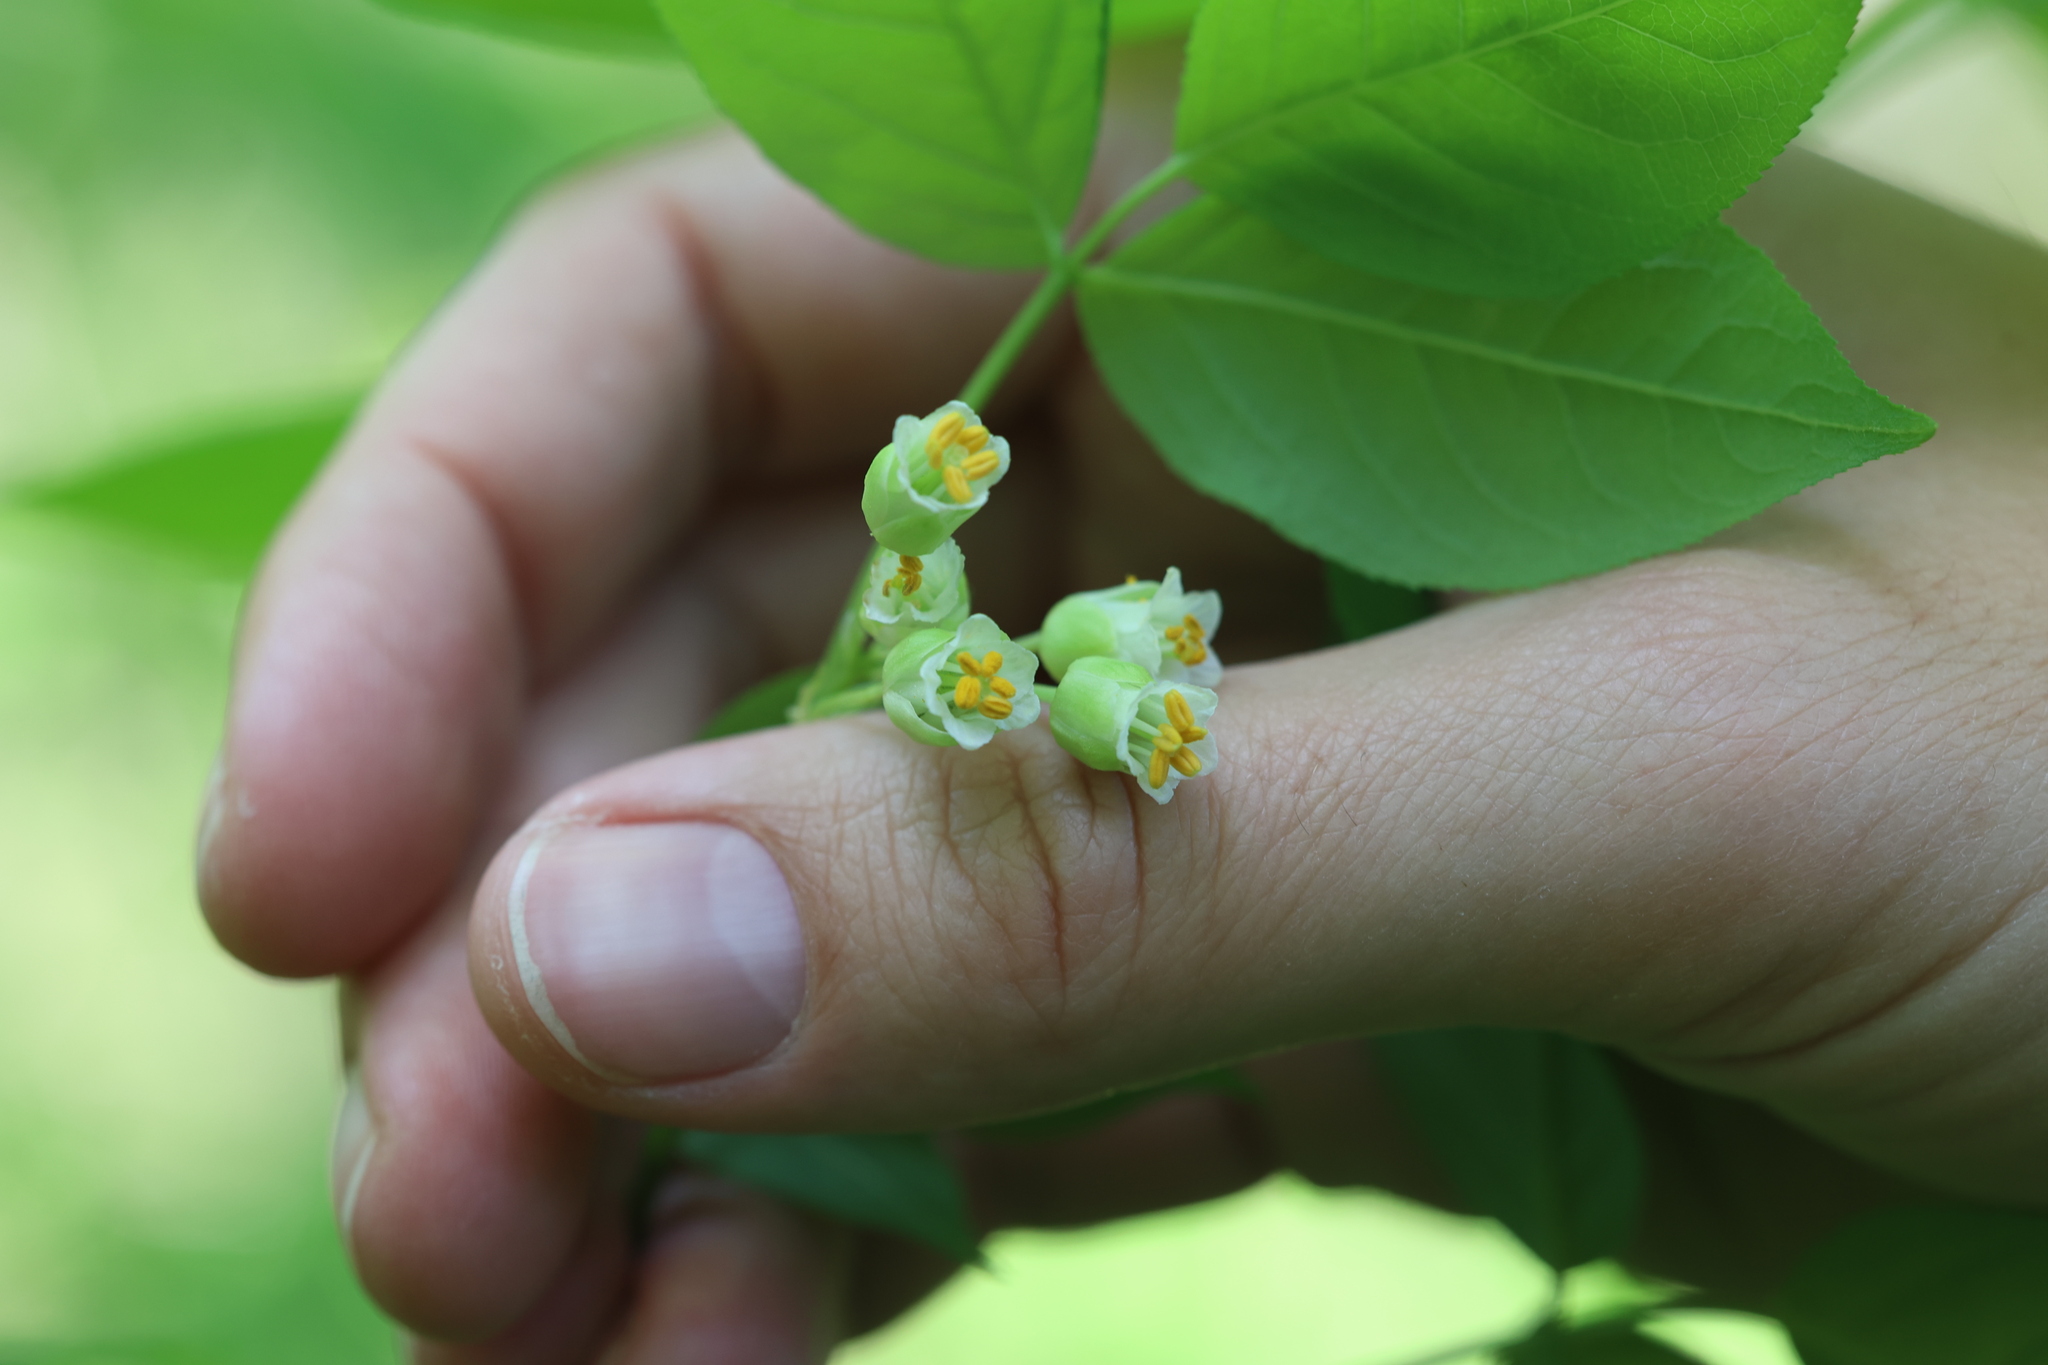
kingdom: Plantae
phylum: Tracheophyta
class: Magnoliopsida
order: Crossosomatales
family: Staphyleaceae
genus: Staphylea
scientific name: Staphylea trifolia
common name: American bladdernut
